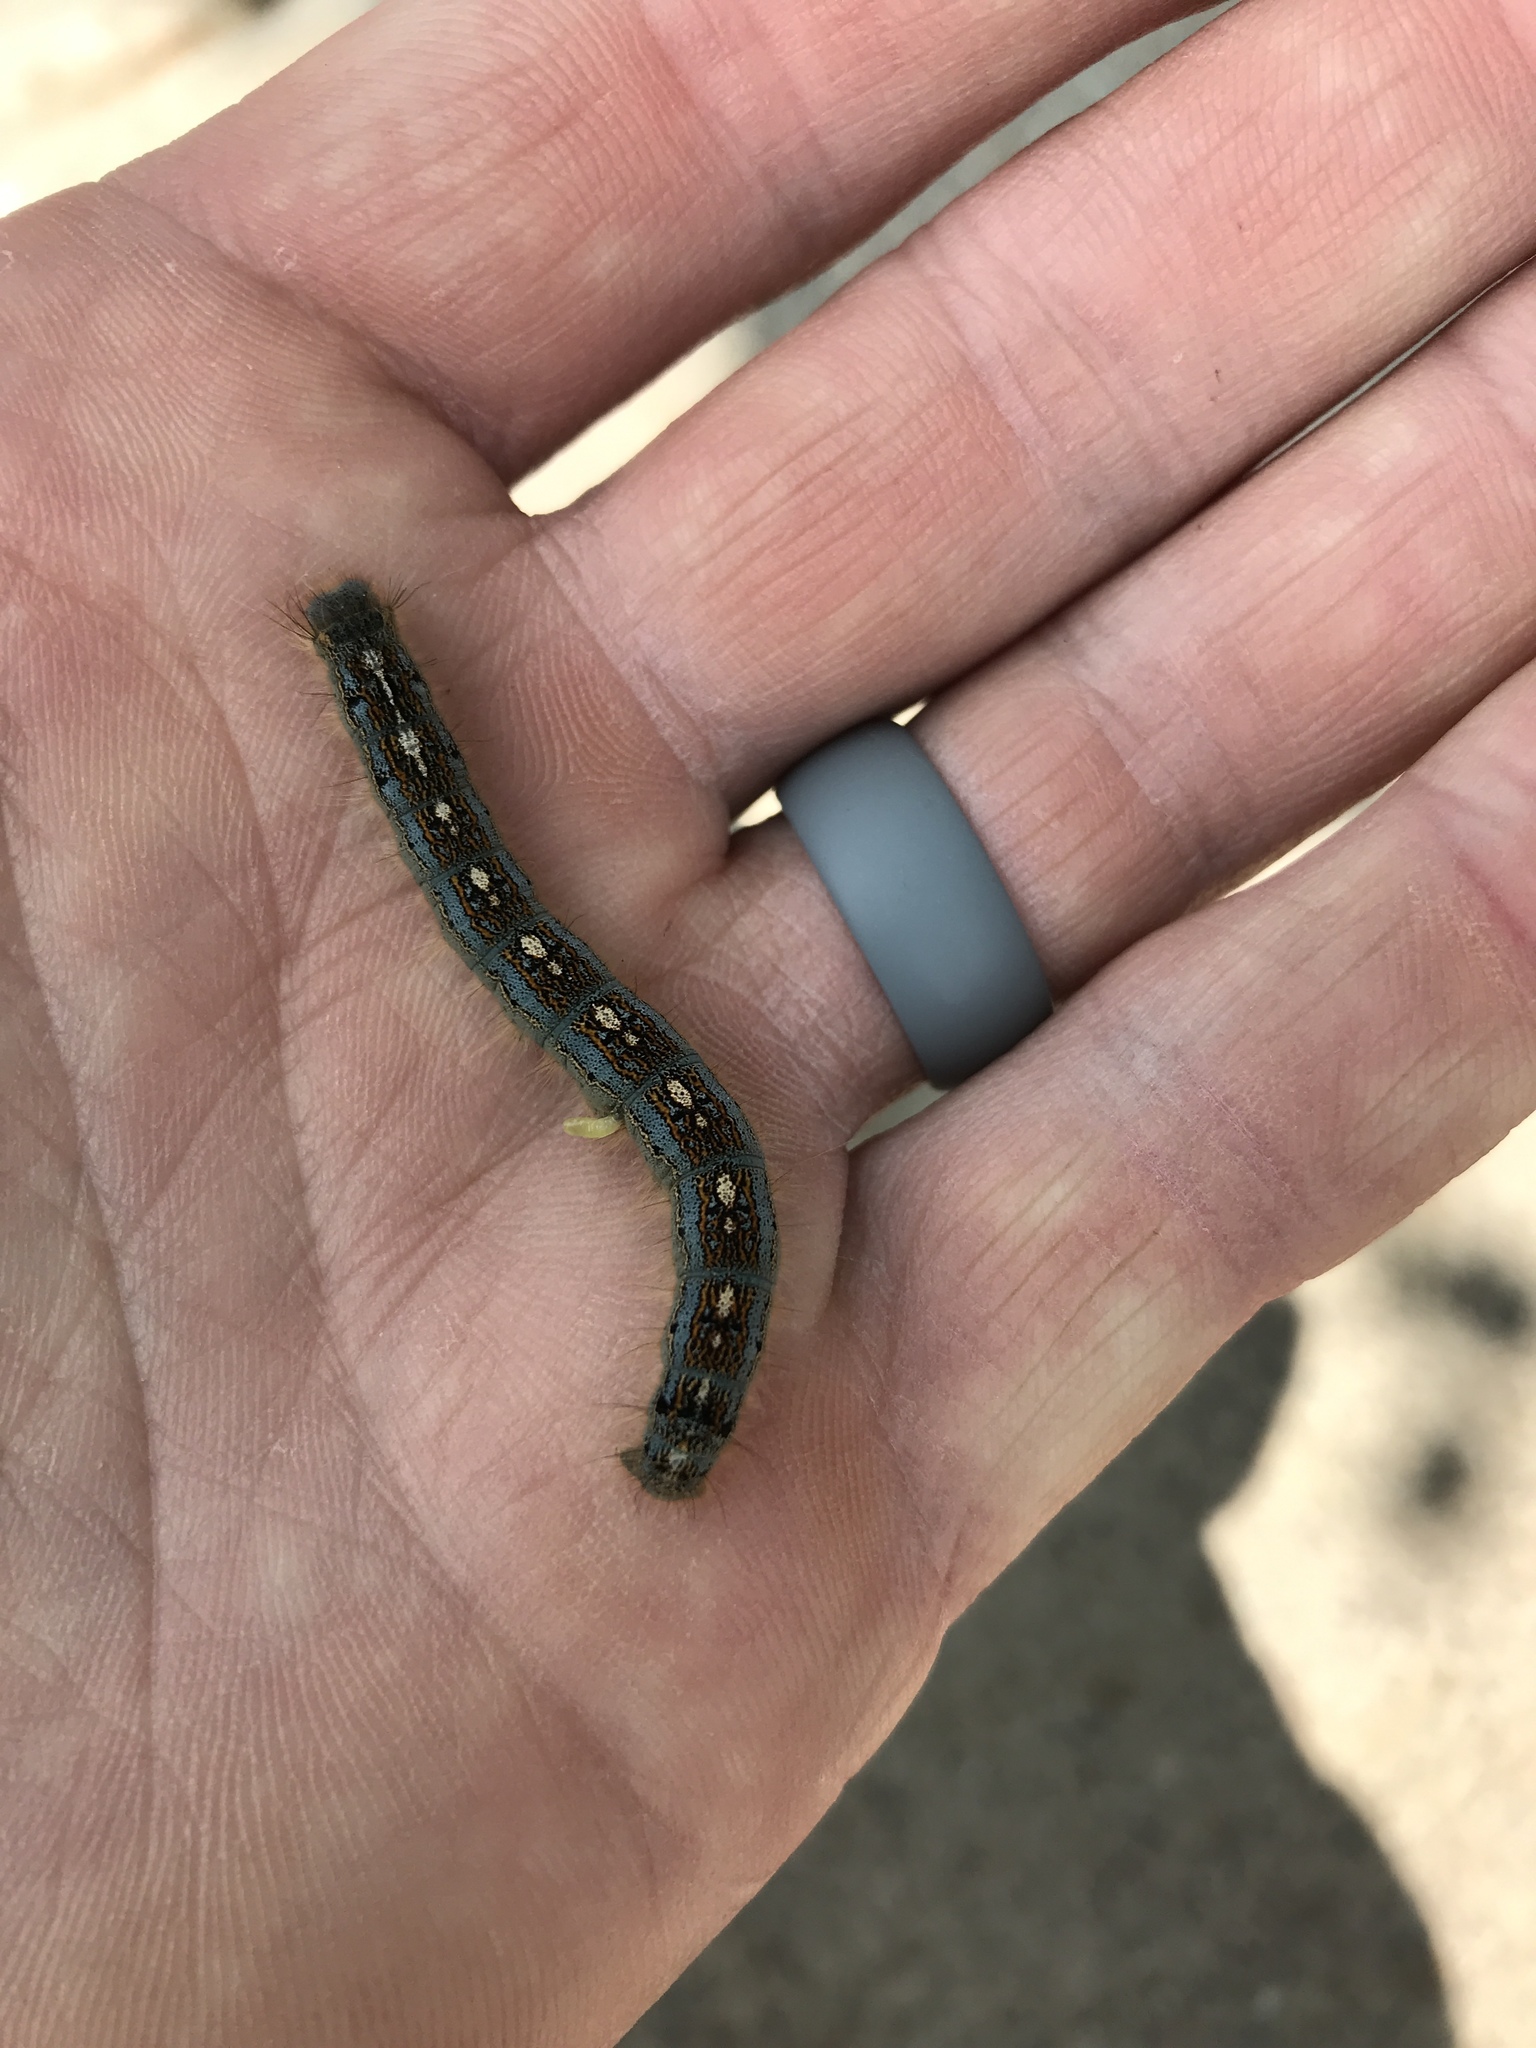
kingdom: Animalia
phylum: Arthropoda
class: Insecta
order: Lepidoptera
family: Lasiocampidae
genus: Malacosoma
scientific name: Malacosoma disstria
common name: Forest tent caterpillar
